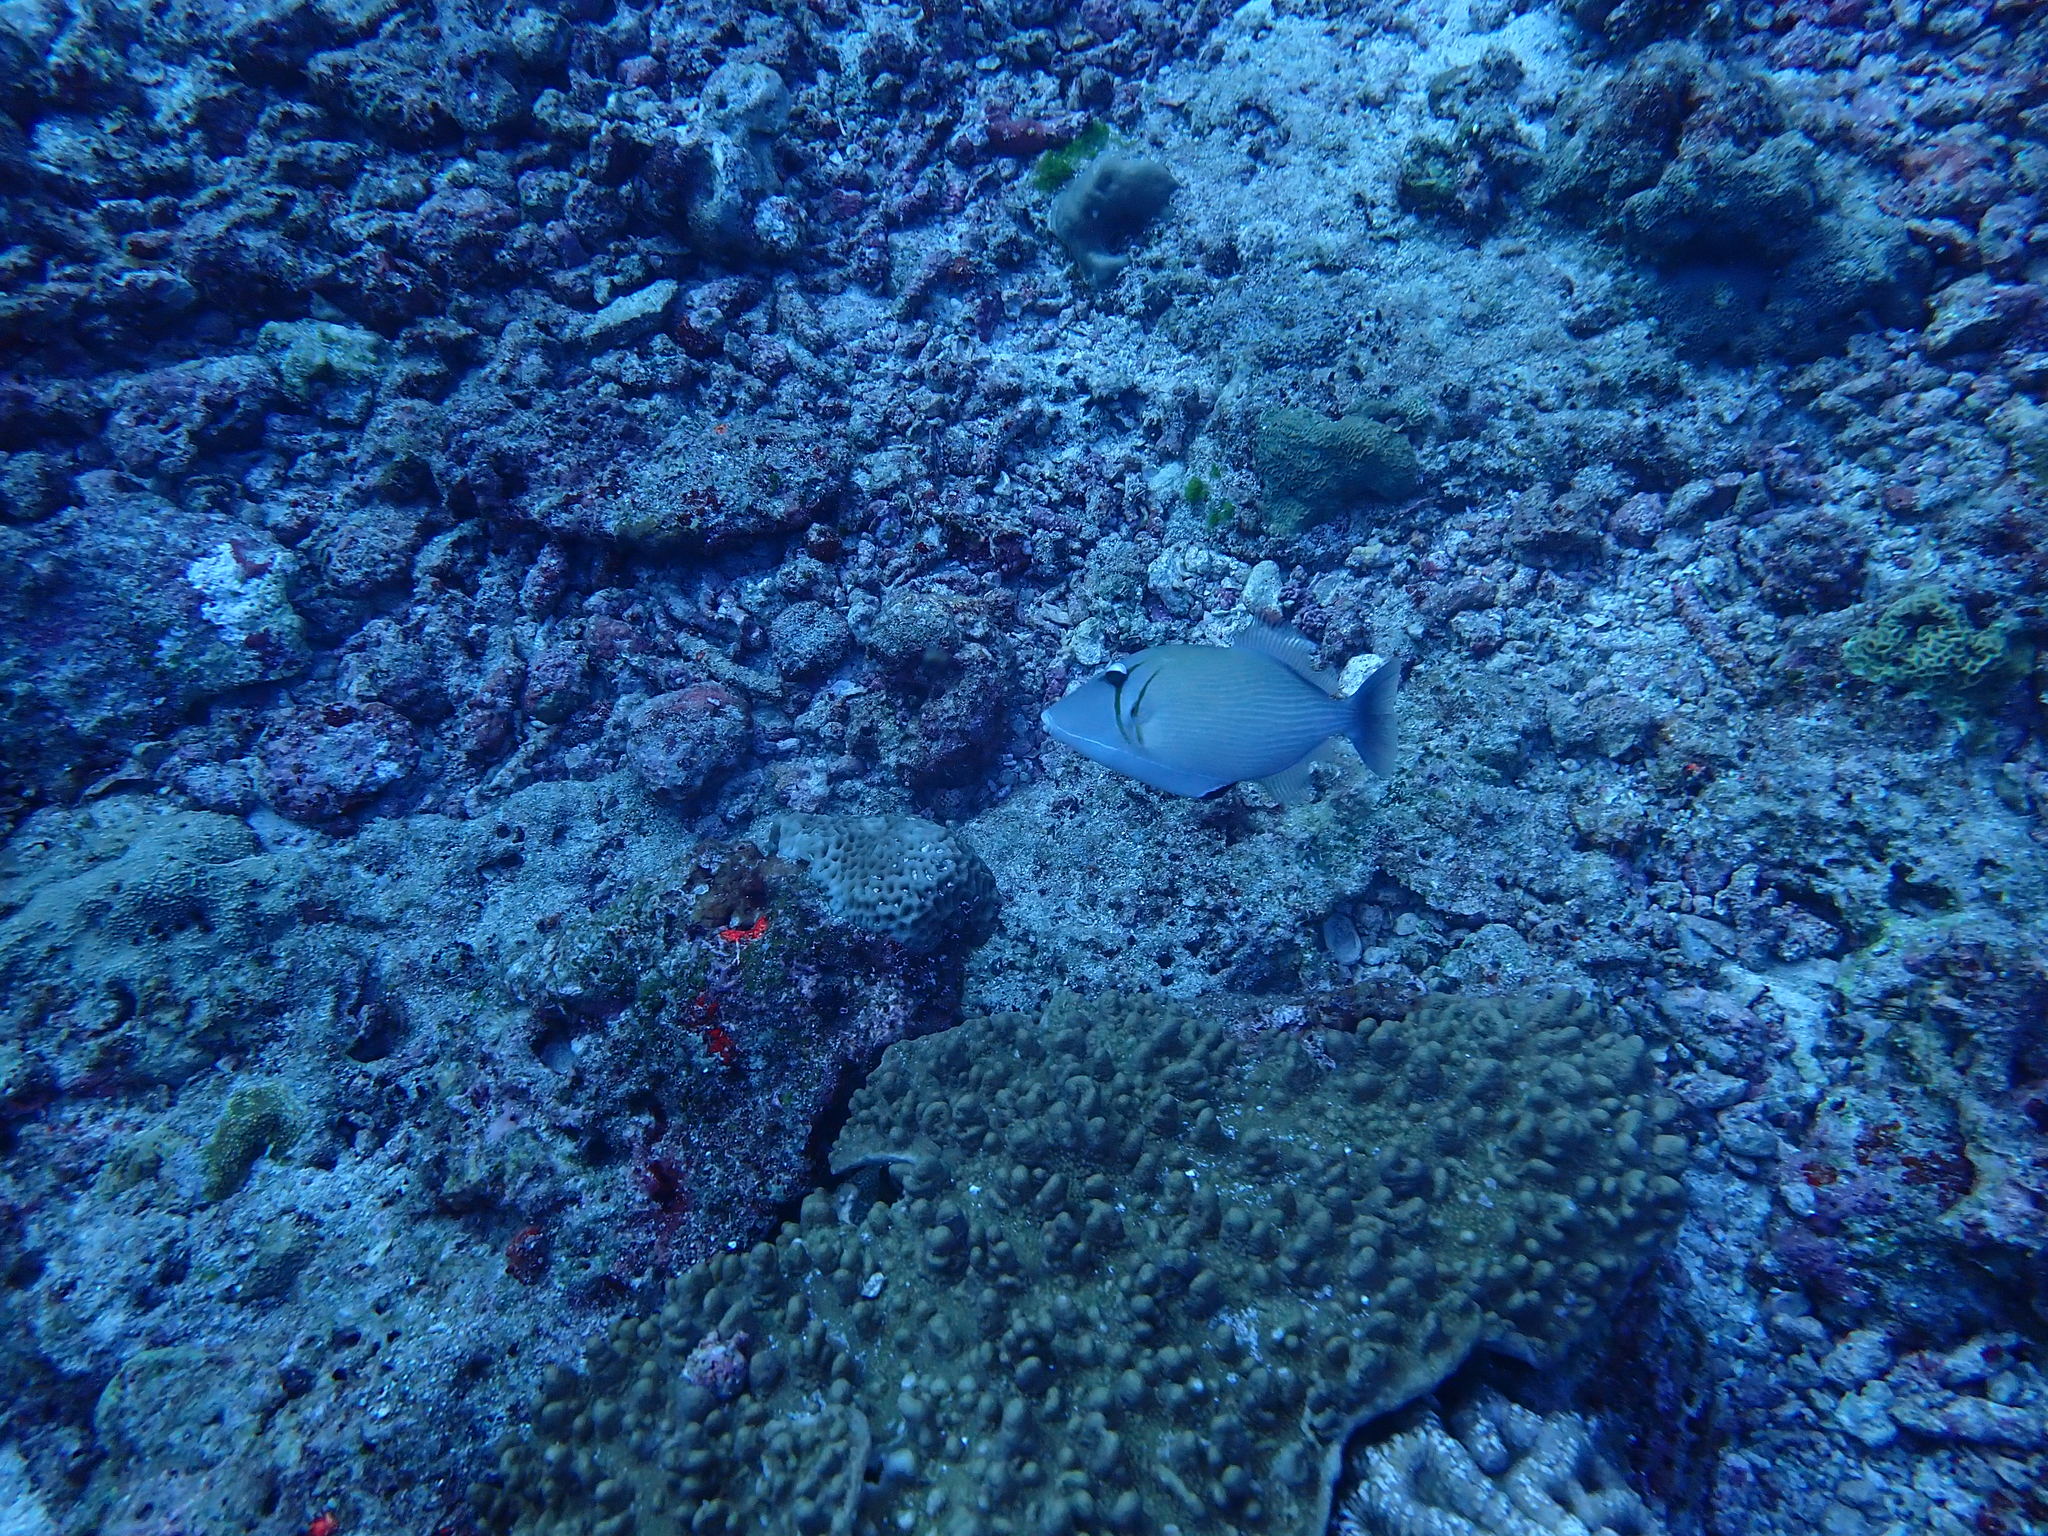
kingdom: Animalia
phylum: Chordata
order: Tetraodontiformes
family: Balistidae
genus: Sufflamen
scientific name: Sufflamen bursa
